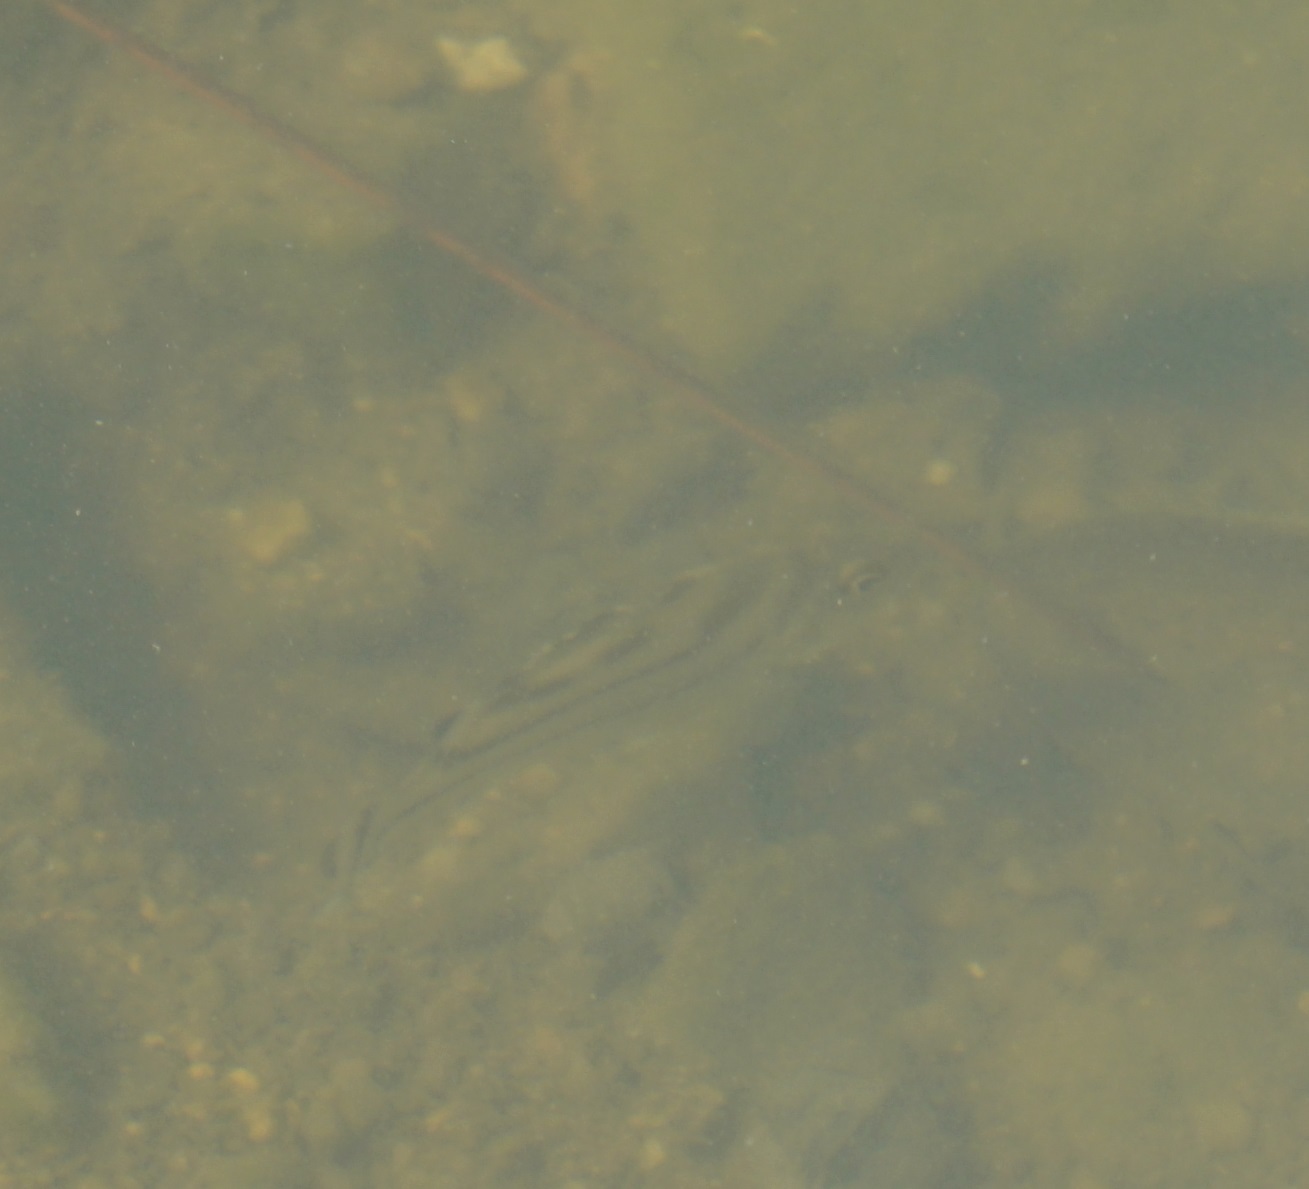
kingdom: Animalia
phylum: Chordata
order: Perciformes
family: Terapontidae
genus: Terapon
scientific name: Terapon jarbua
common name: Jarbua terapon
